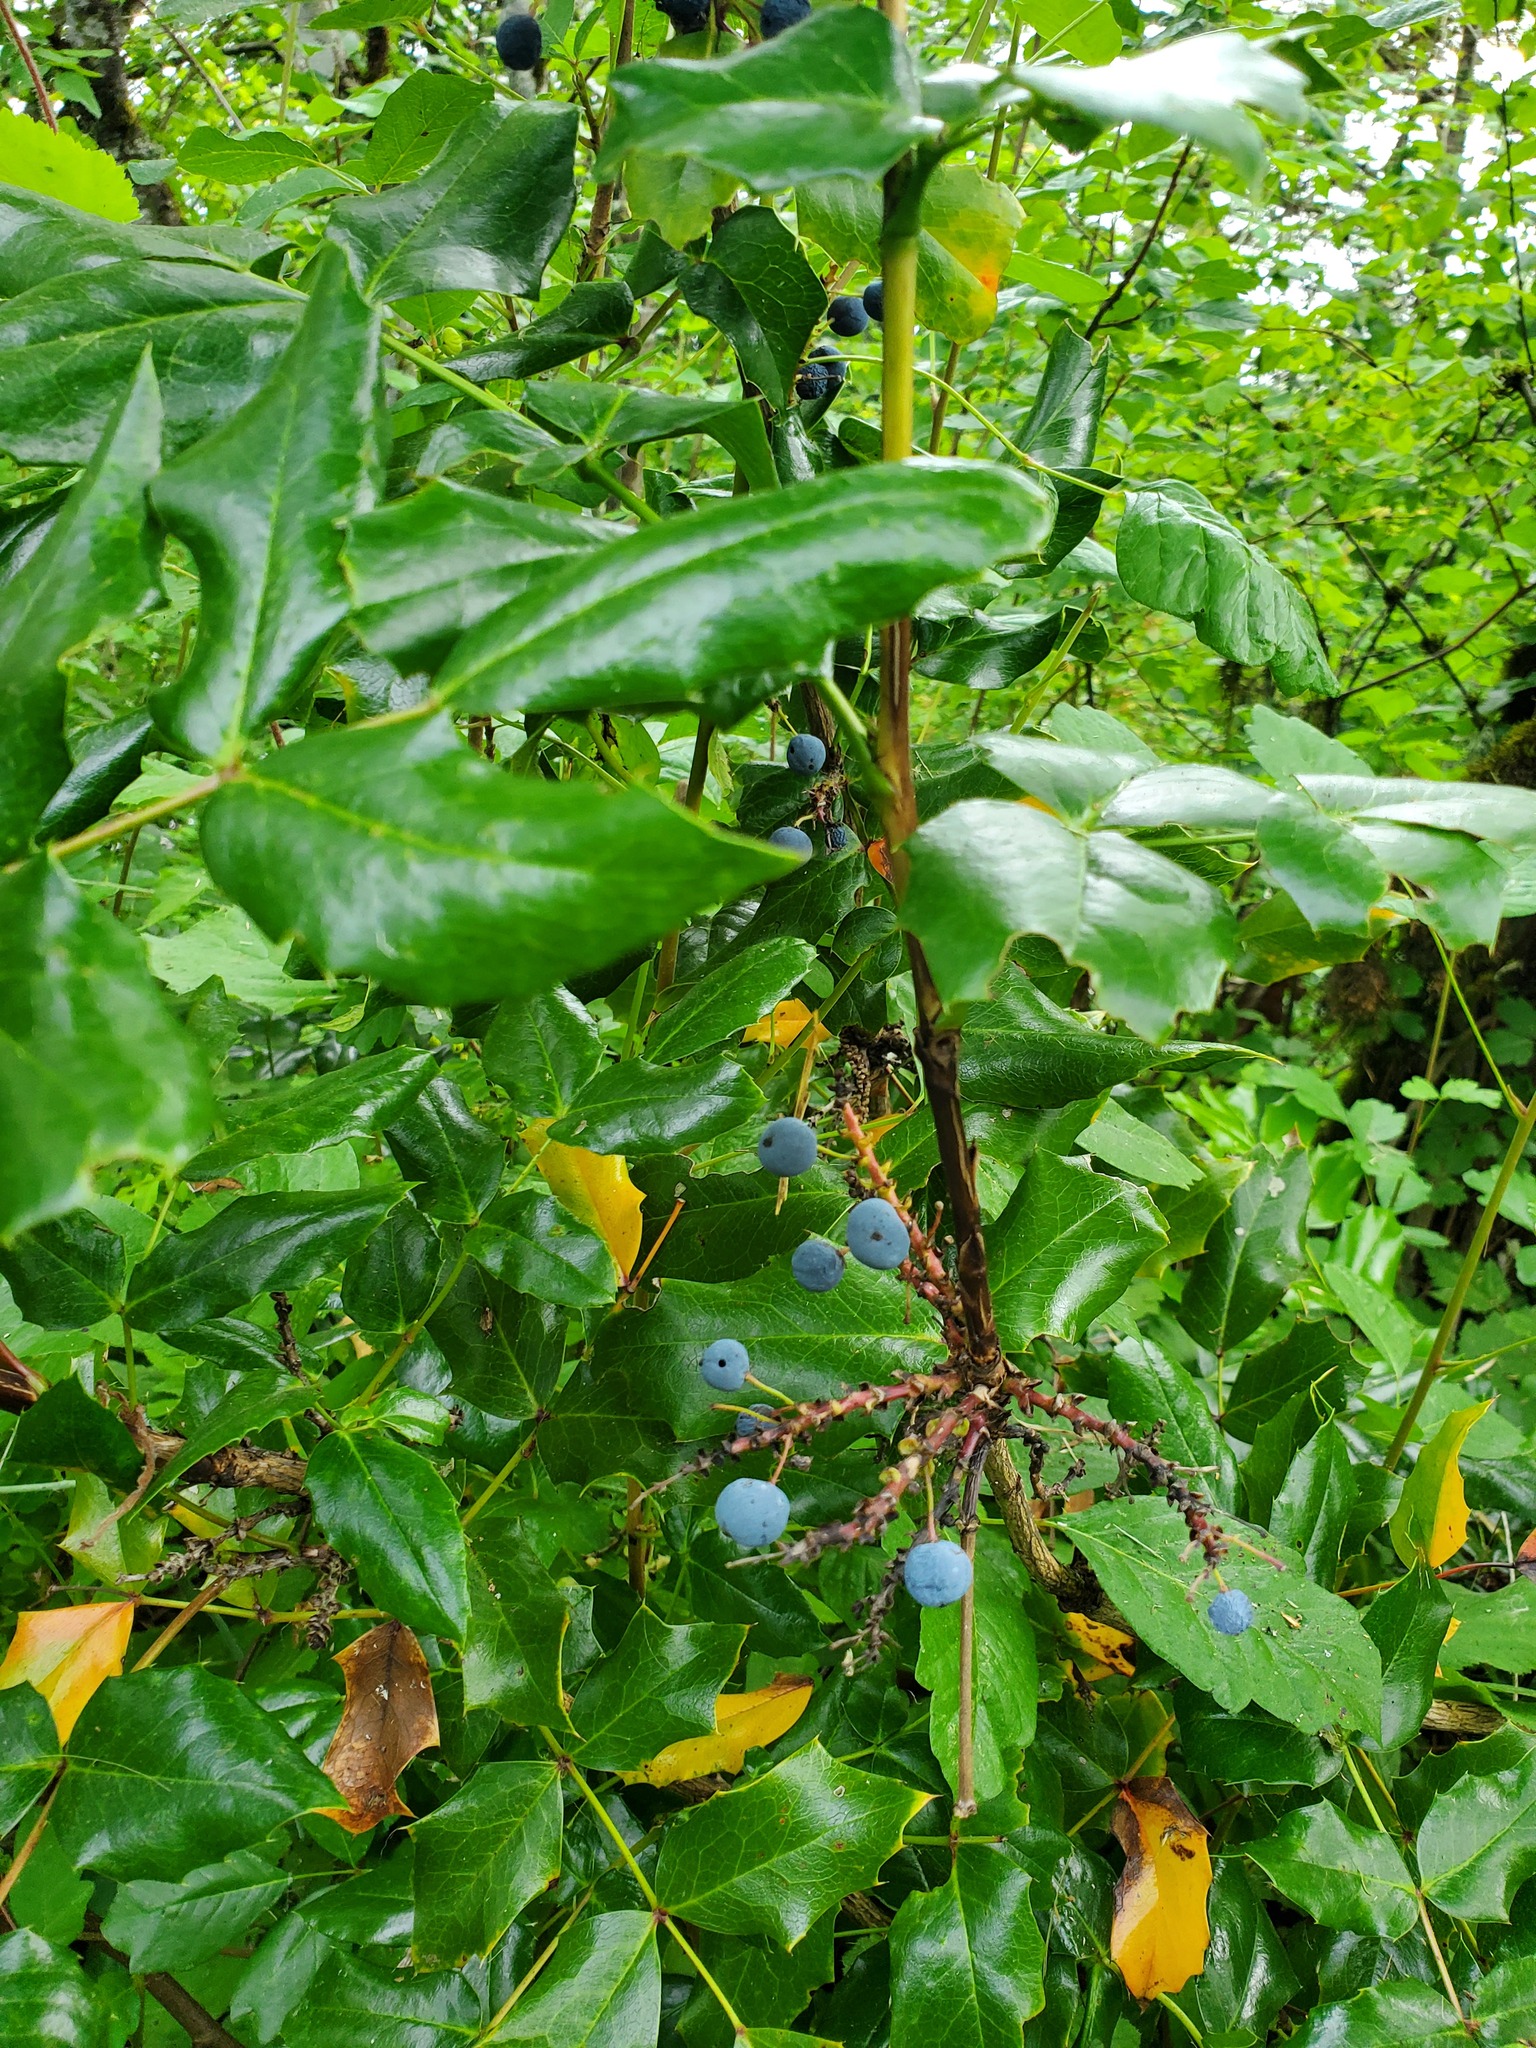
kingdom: Plantae
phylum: Tracheophyta
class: Magnoliopsida
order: Ranunculales
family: Berberidaceae
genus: Mahonia
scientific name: Mahonia aquifolium
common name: Oregon-grape
